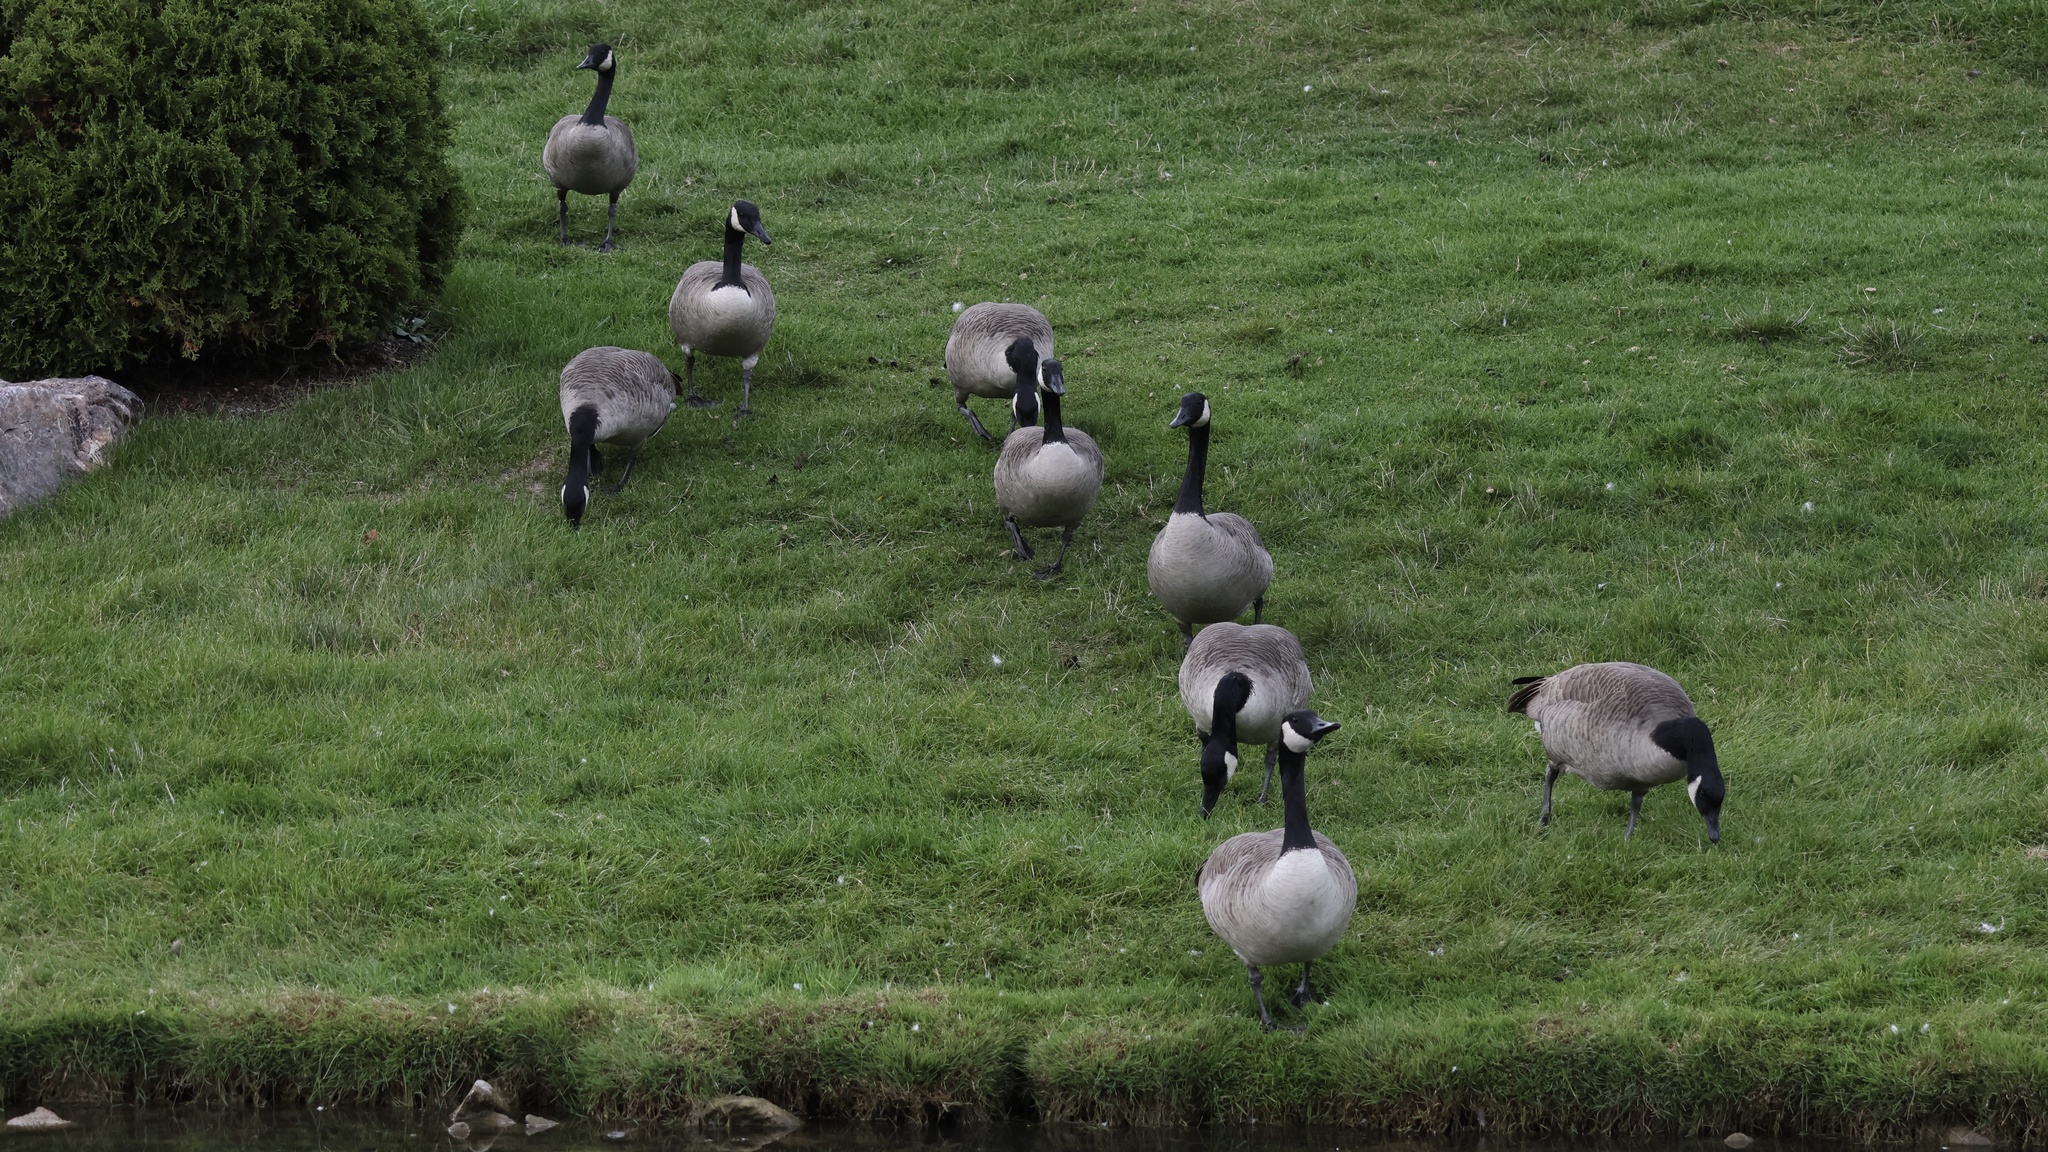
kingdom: Animalia
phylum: Chordata
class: Aves
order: Anseriformes
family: Anatidae
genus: Branta
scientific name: Branta canadensis
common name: Canada goose
